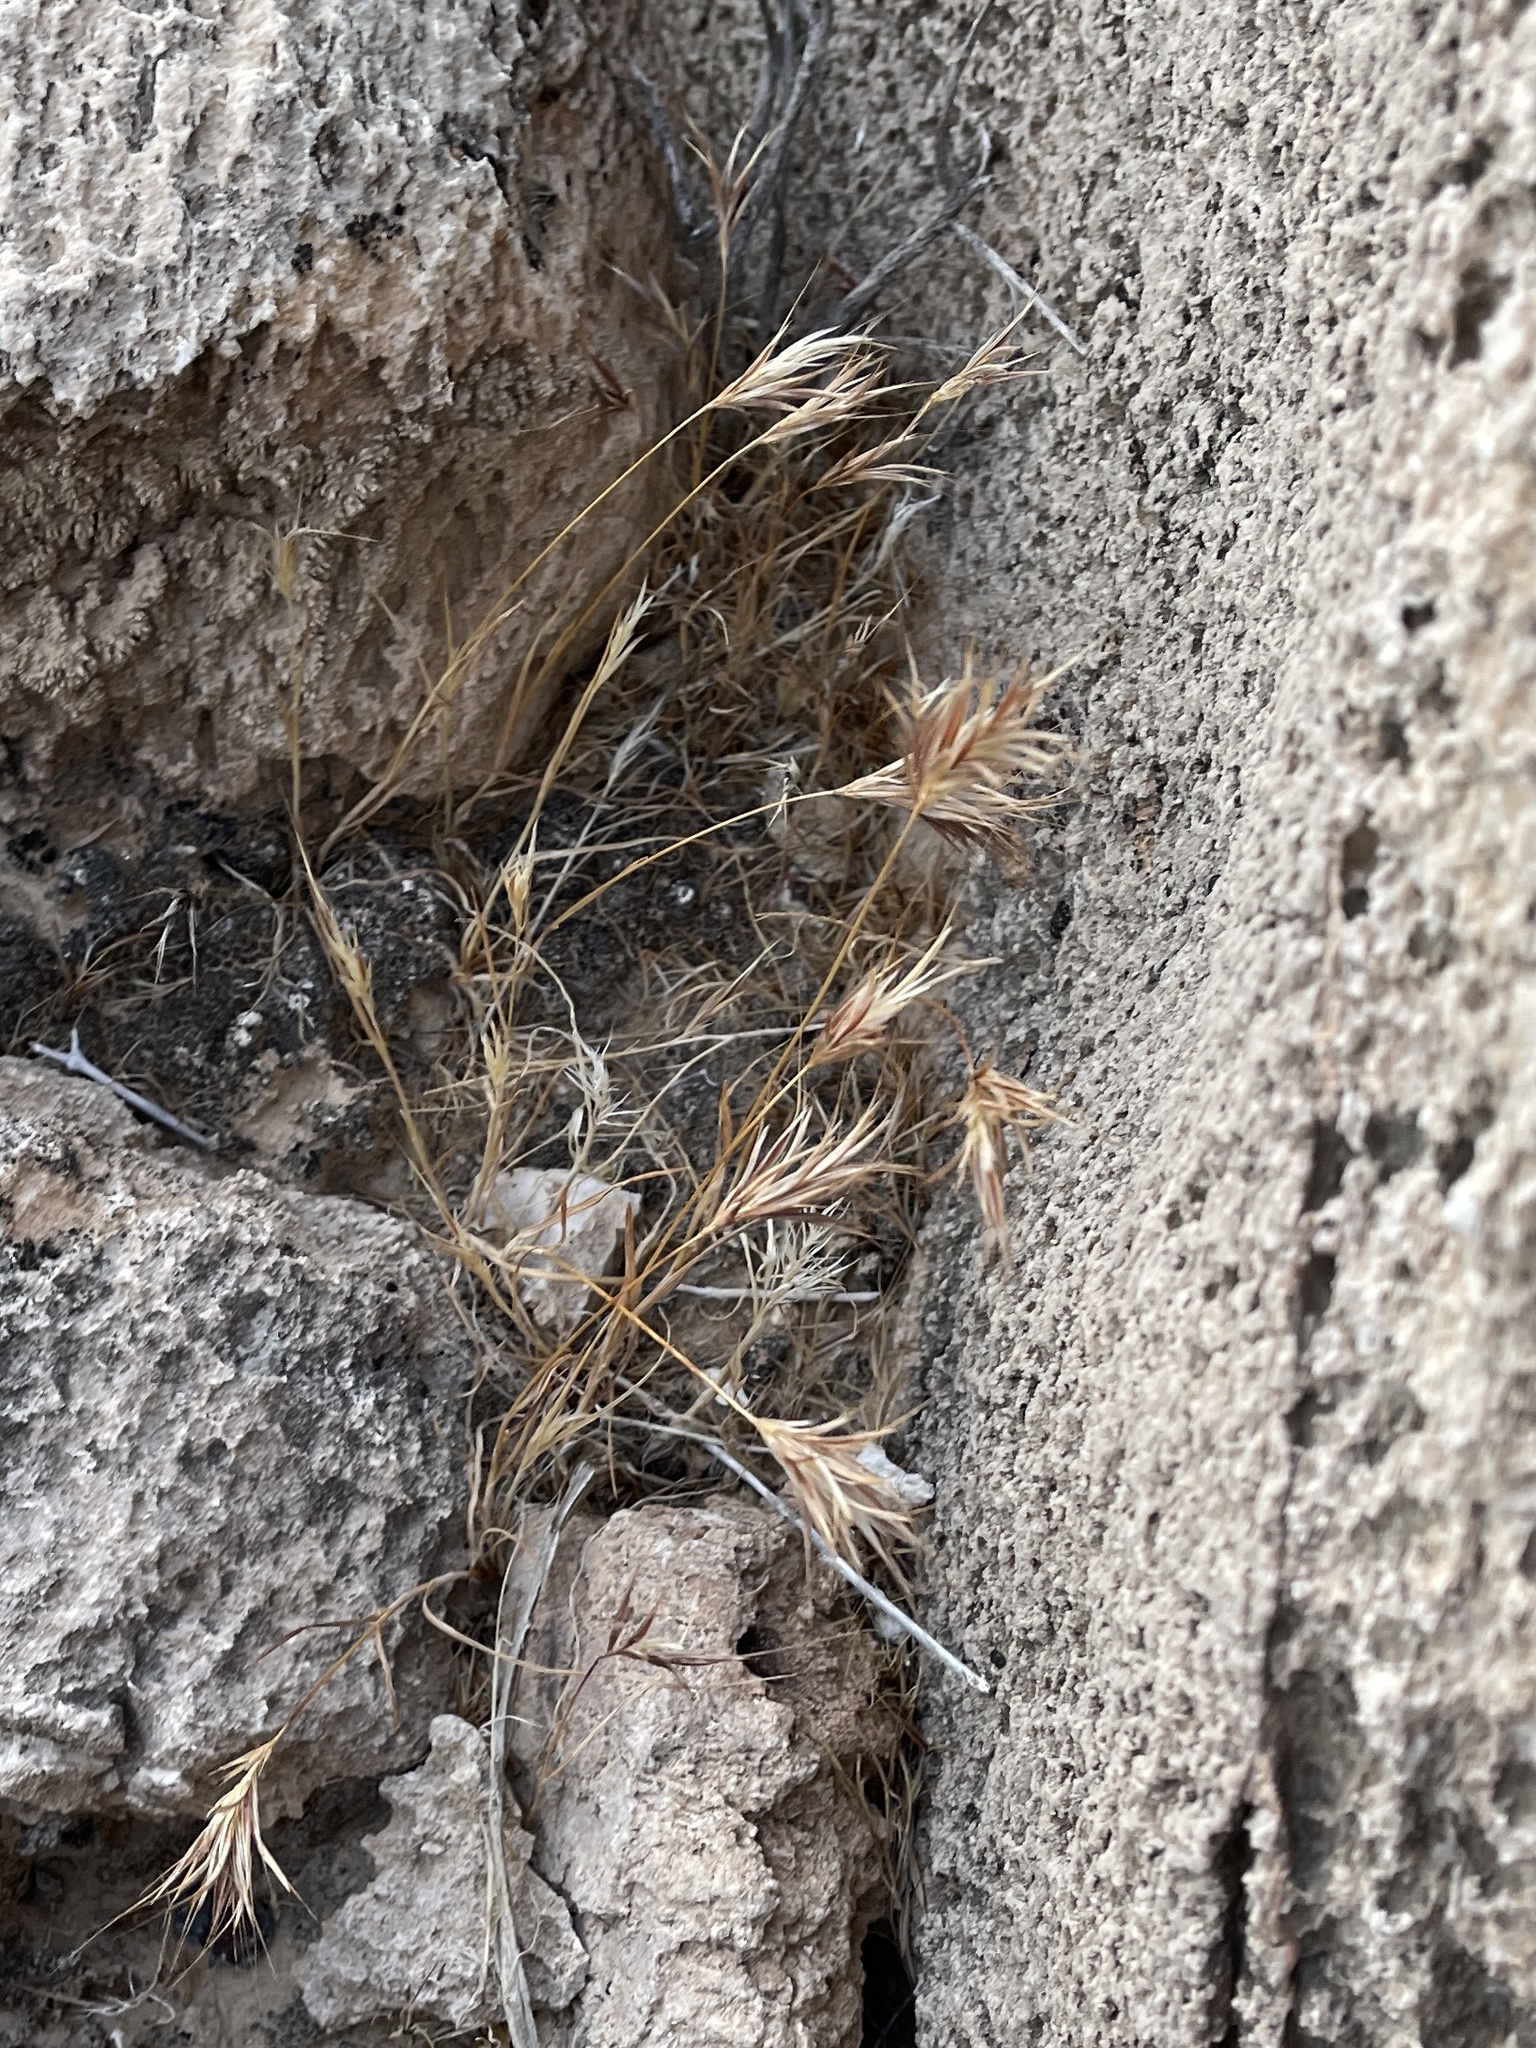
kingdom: Plantae
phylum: Tracheophyta
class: Liliopsida
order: Poales
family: Poaceae
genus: Bromus
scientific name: Bromus rubens
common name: Red brome
